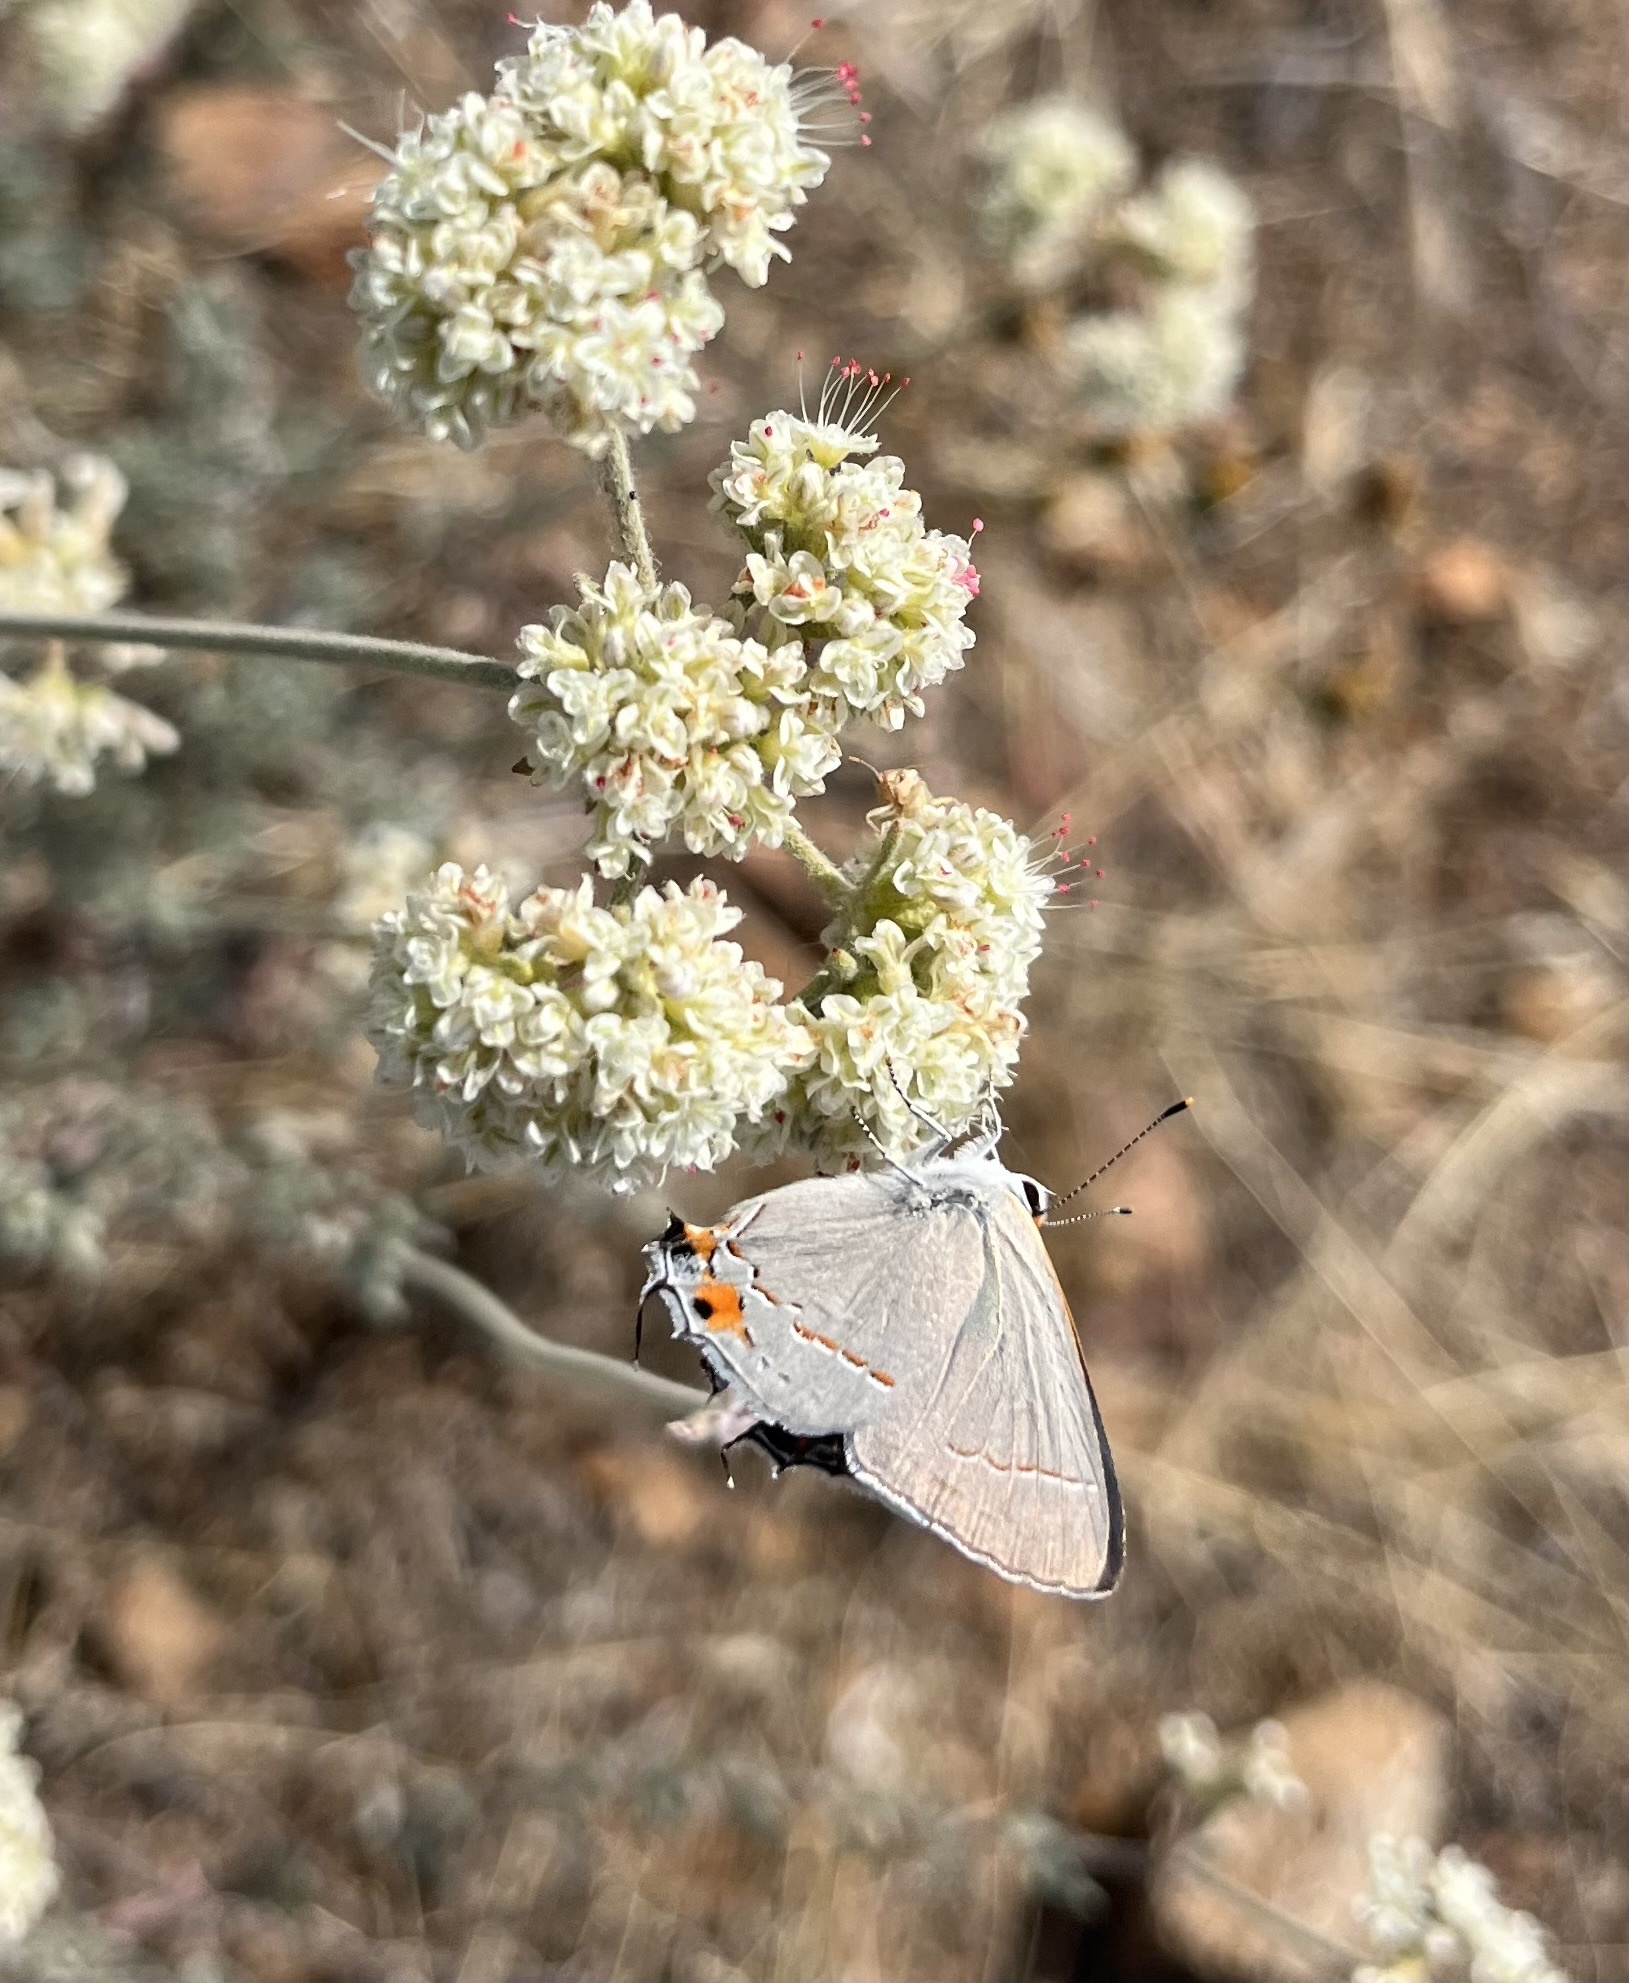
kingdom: Animalia
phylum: Arthropoda
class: Insecta
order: Lepidoptera
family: Lycaenidae
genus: Strymon
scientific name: Strymon melinus
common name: Gray hairstreak
